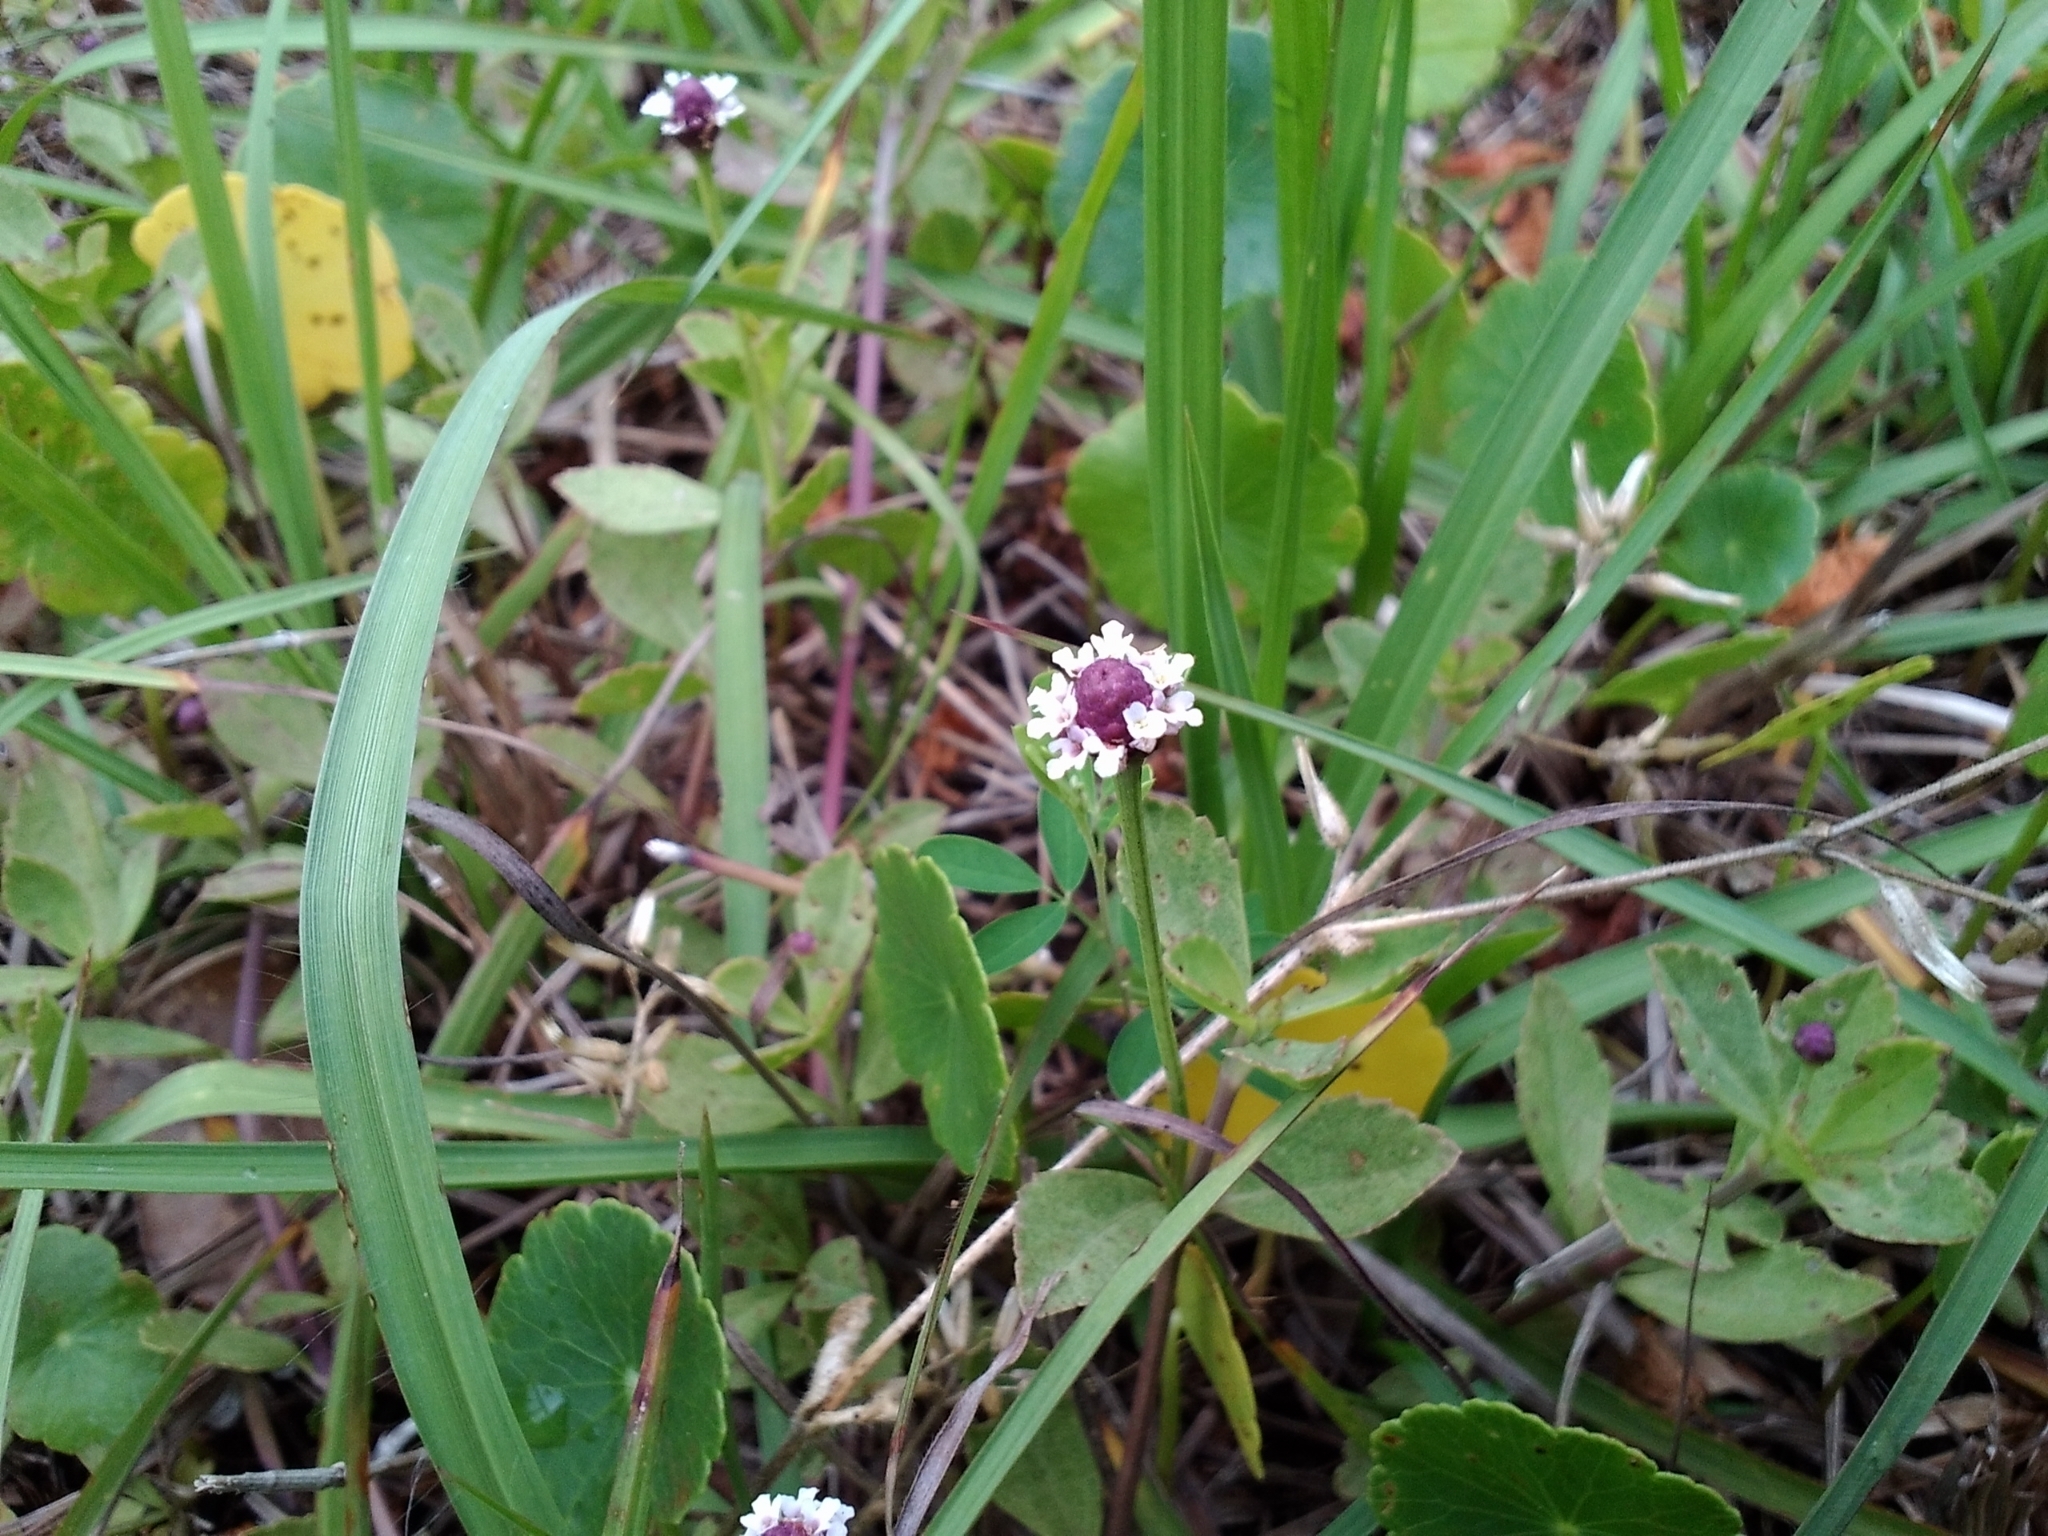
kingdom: Plantae
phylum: Tracheophyta
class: Magnoliopsida
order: Lamiales
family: Verbenaceae
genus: Phyla
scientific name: Phyla nodiflora
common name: Frogfruit
